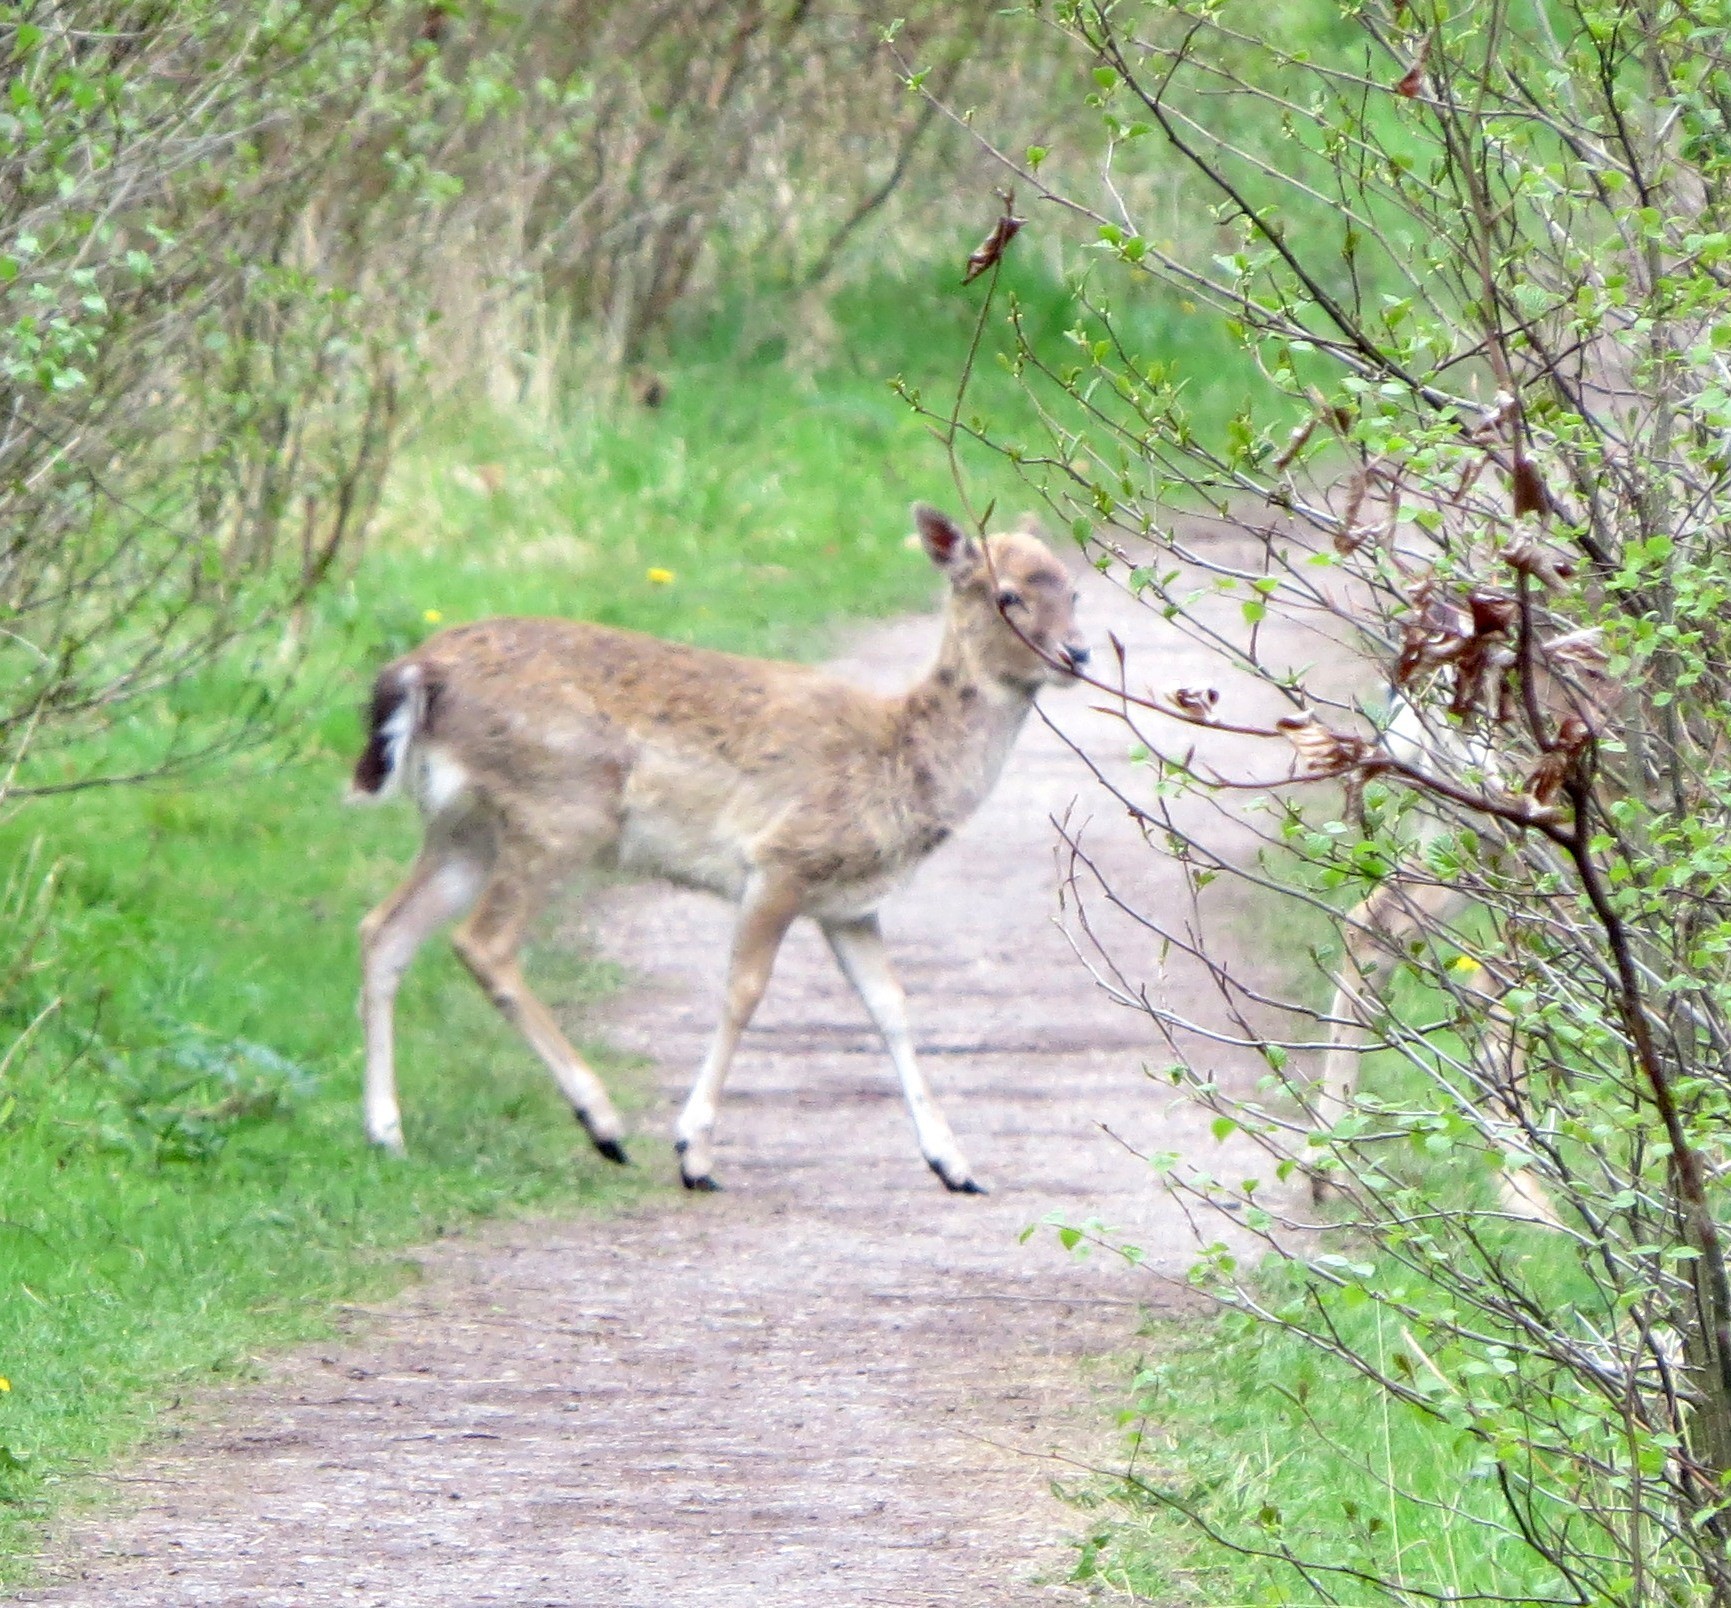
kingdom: Animalia
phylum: Chordata
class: Mammalia
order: Artiodactyla
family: Cervidae
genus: Dama
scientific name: Dama dama
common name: Fallow deer
